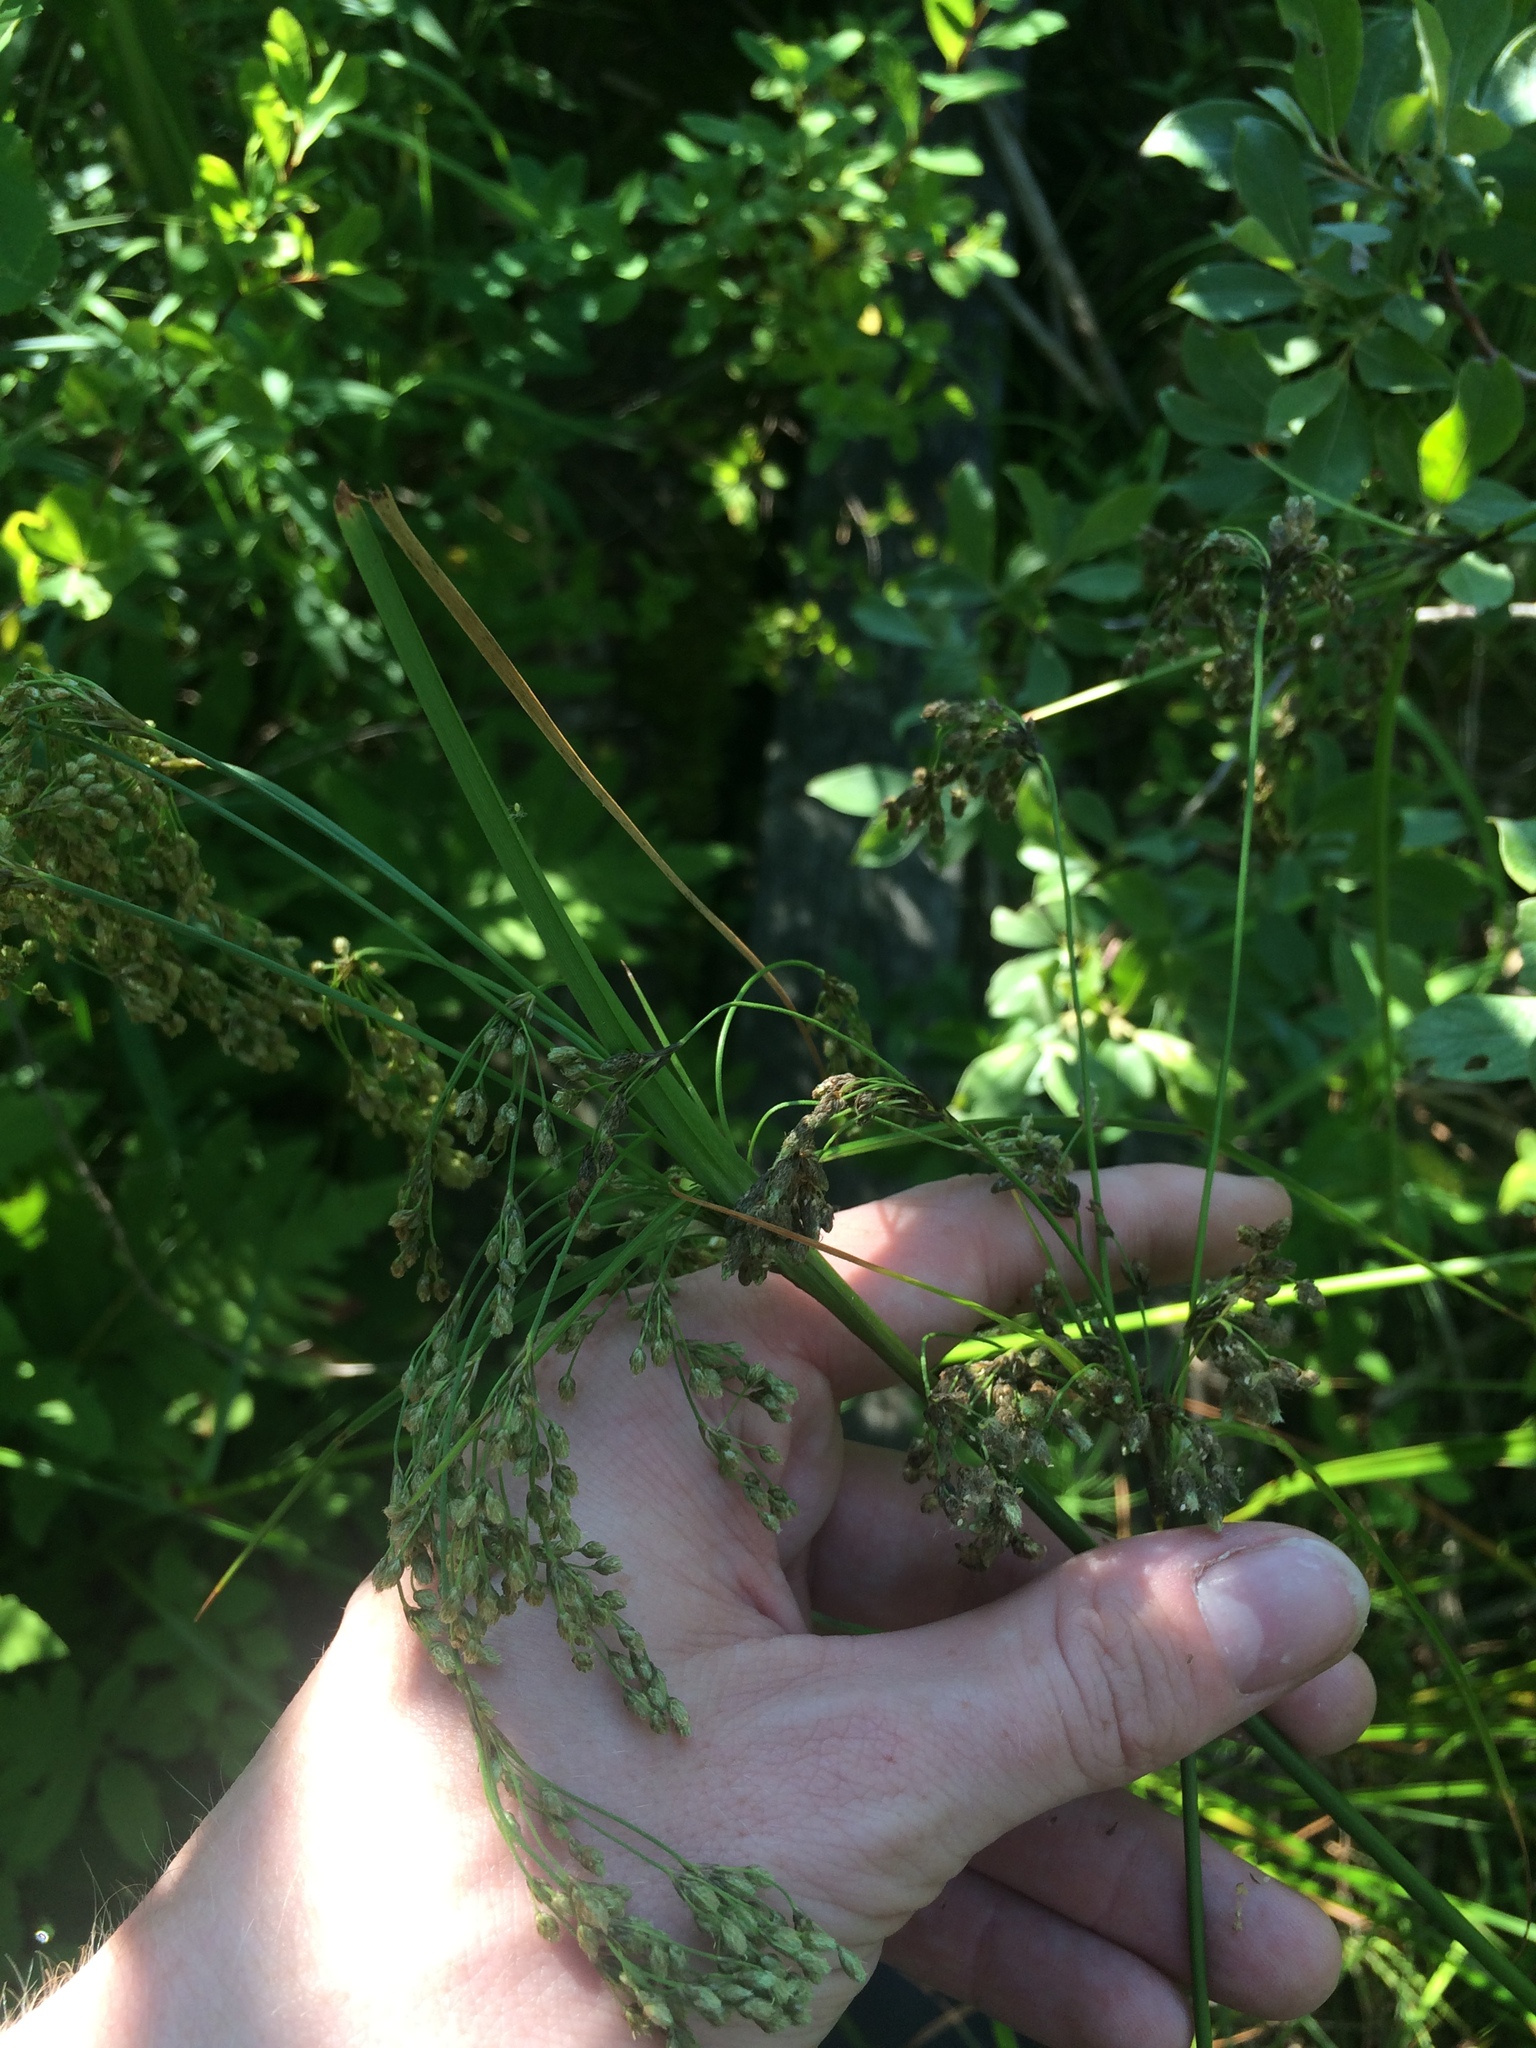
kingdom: Plantae
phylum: Tracheophyta
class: Liliopsida
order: Poales
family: Cyperaceae
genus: Scirpus
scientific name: Scirpus atrocinctus
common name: Black-girdled bulrush
